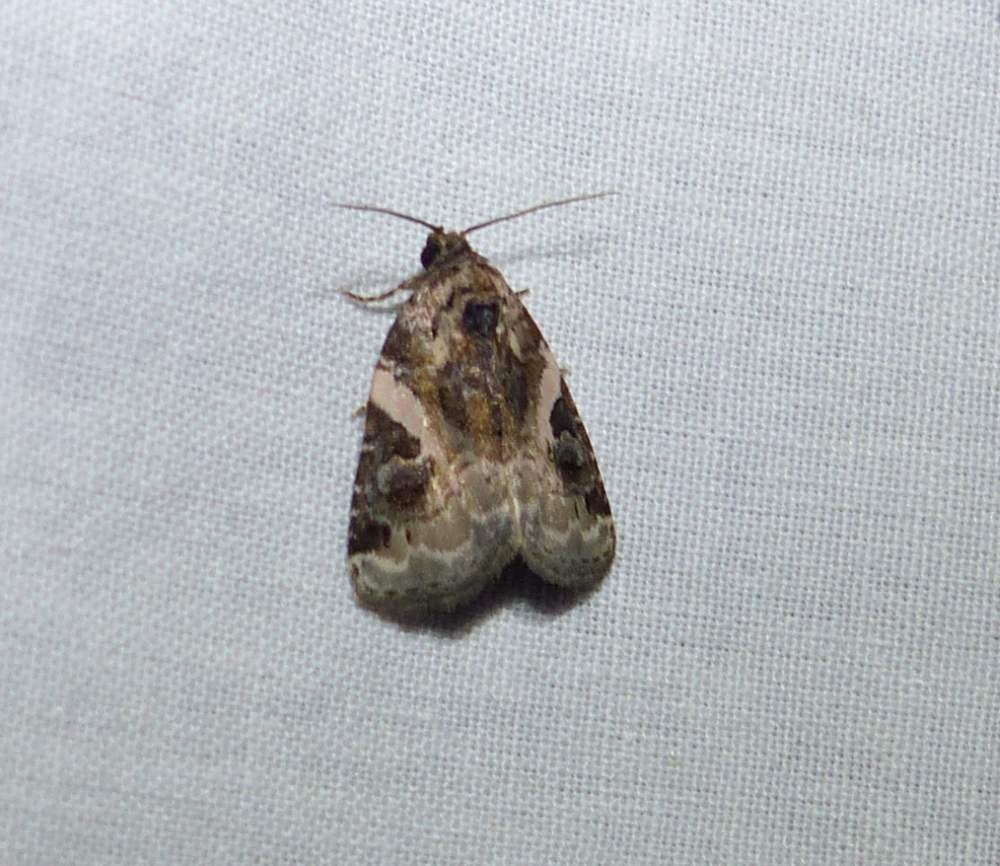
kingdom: Animalia
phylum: Arthropoda
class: Insecta
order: Lepidoptera
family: Noctuidae
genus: Pseudeustrotia
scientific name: Pseudeustrotia carneola
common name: Pink-barred lithacodia moth
